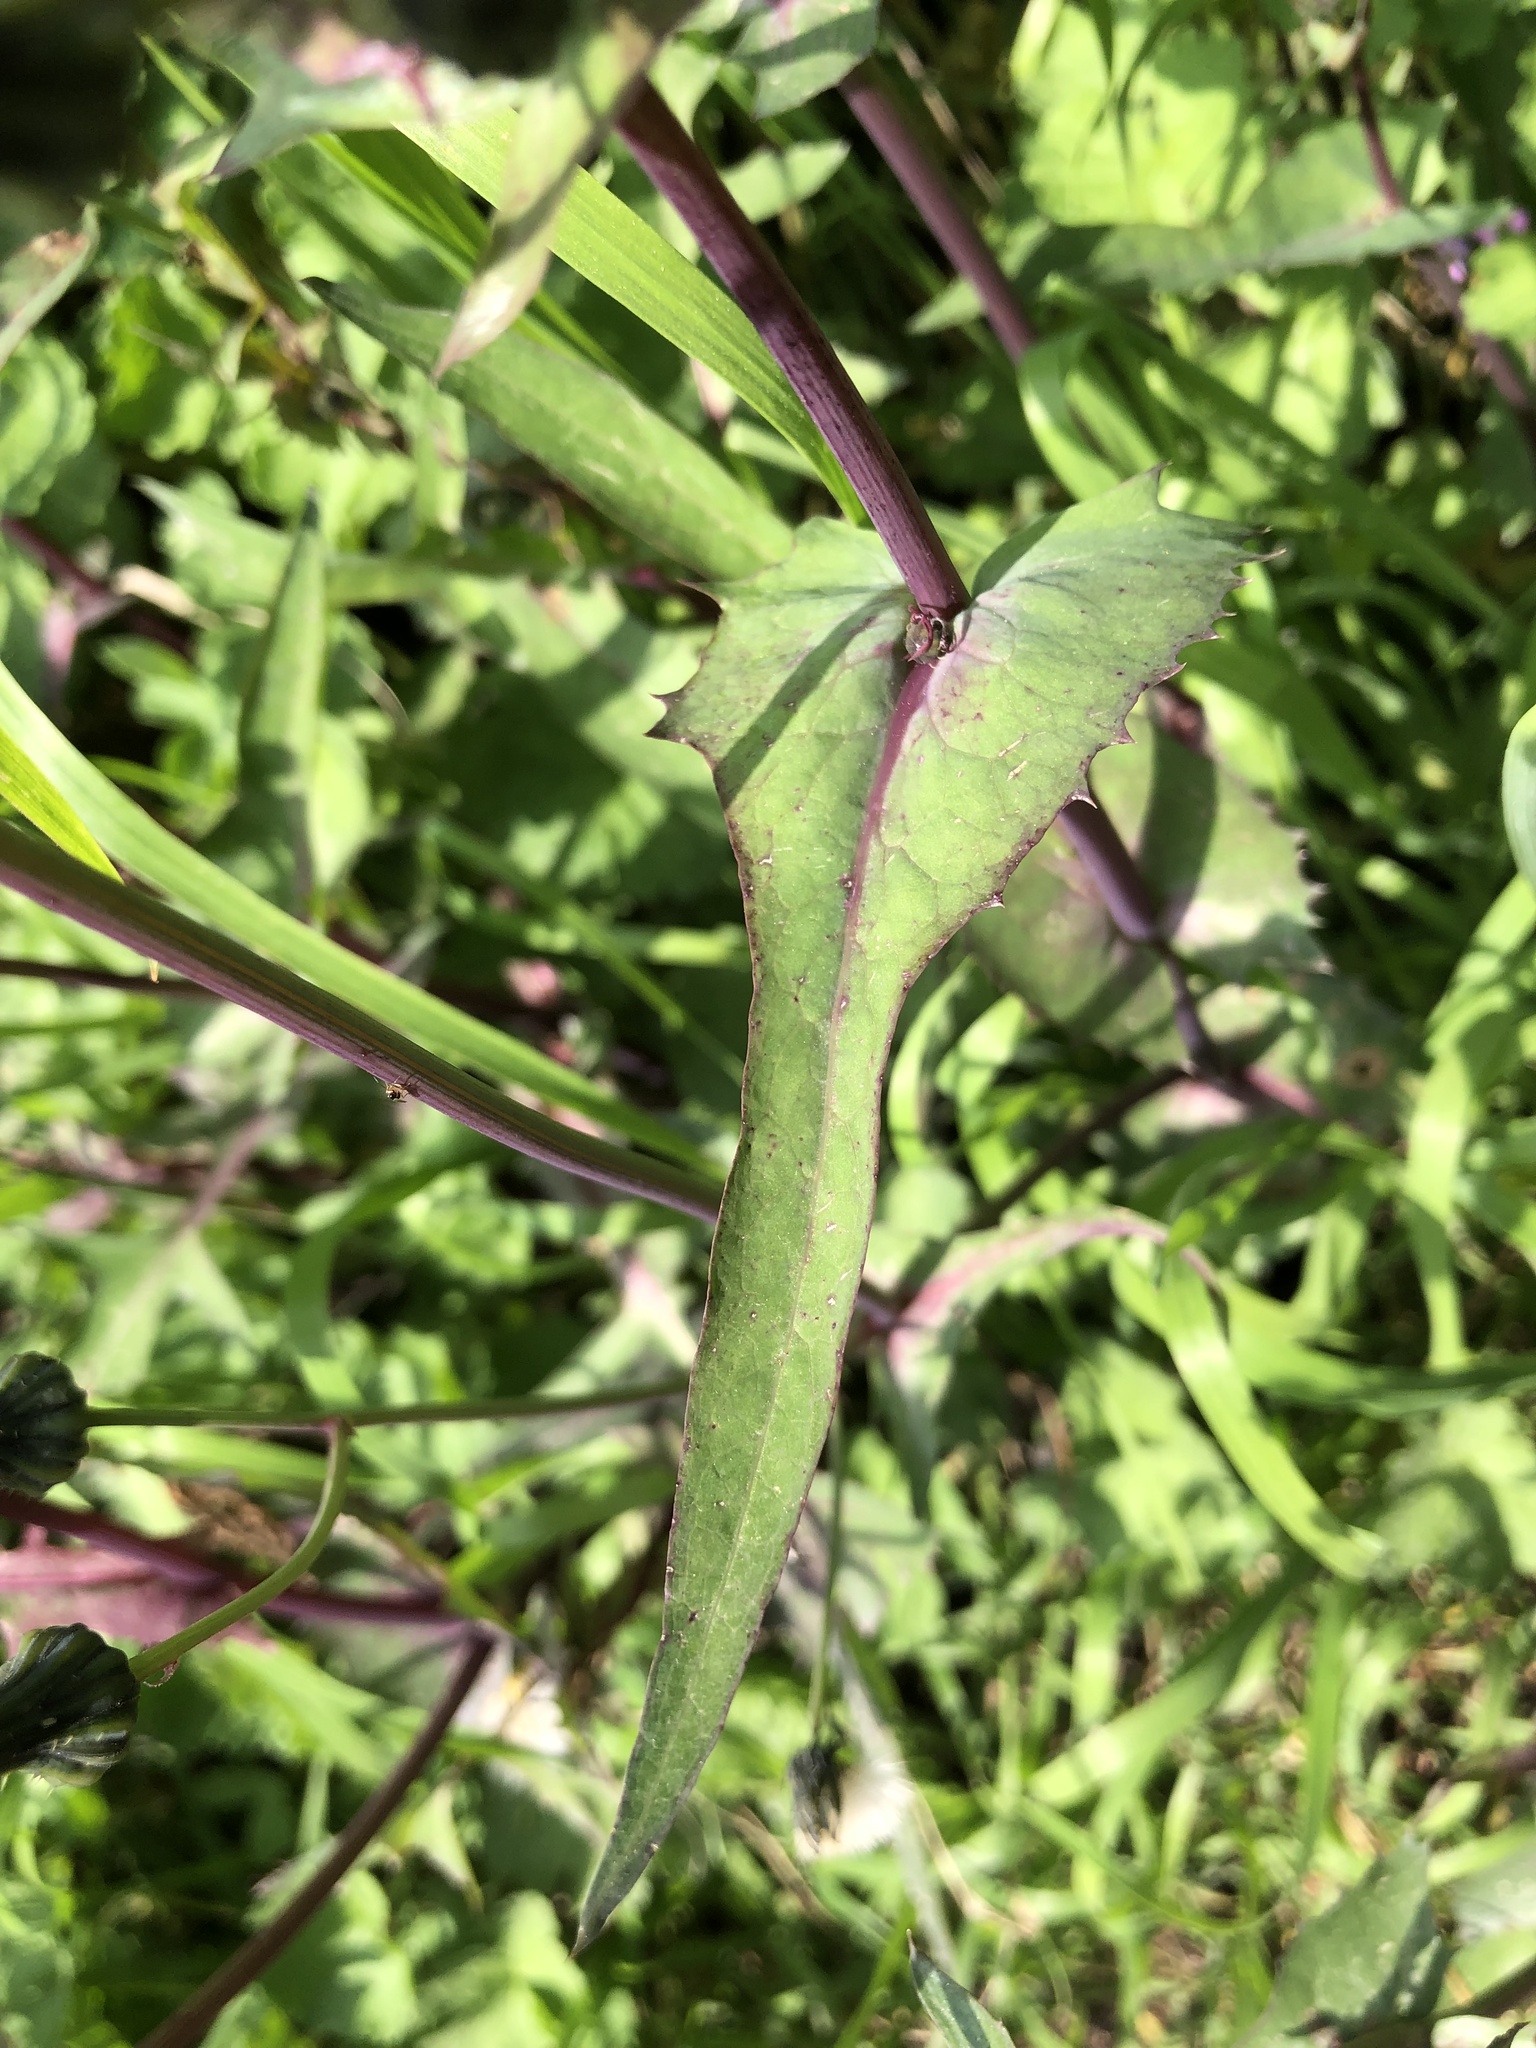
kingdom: Plantae
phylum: Tracheophyta
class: Magnoliopsida
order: Asterales
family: Asteraceae
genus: Sonchus
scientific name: Sonchus oleraceus
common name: Common sowthistle
